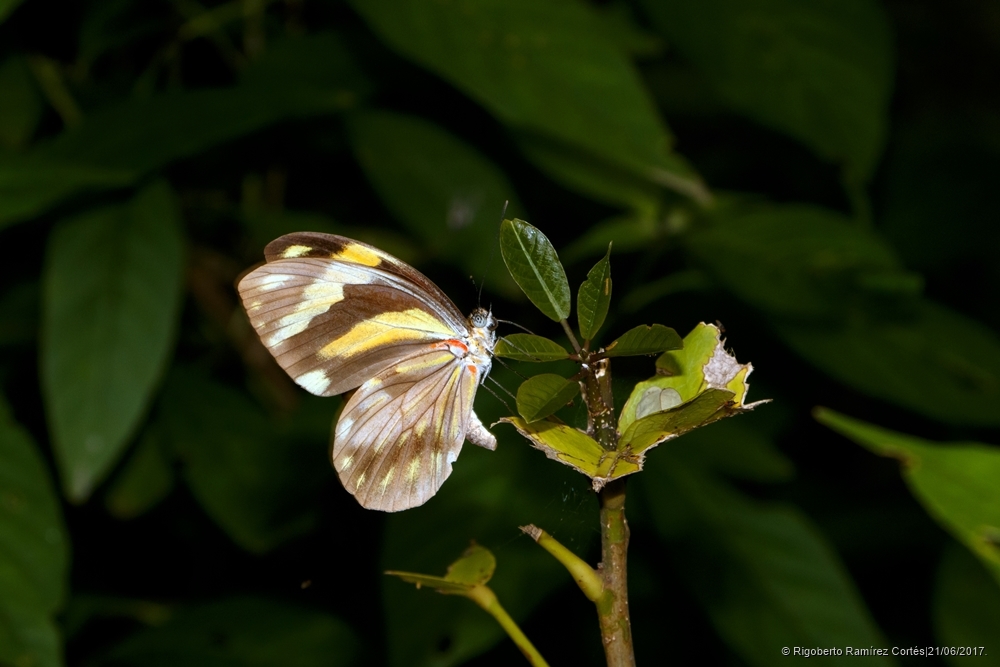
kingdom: Animalia
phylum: Arthropoda
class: Insecta
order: Lepidoptera
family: Pieridae
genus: Pieriballia
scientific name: Pieriballia viardi
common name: Painted white
